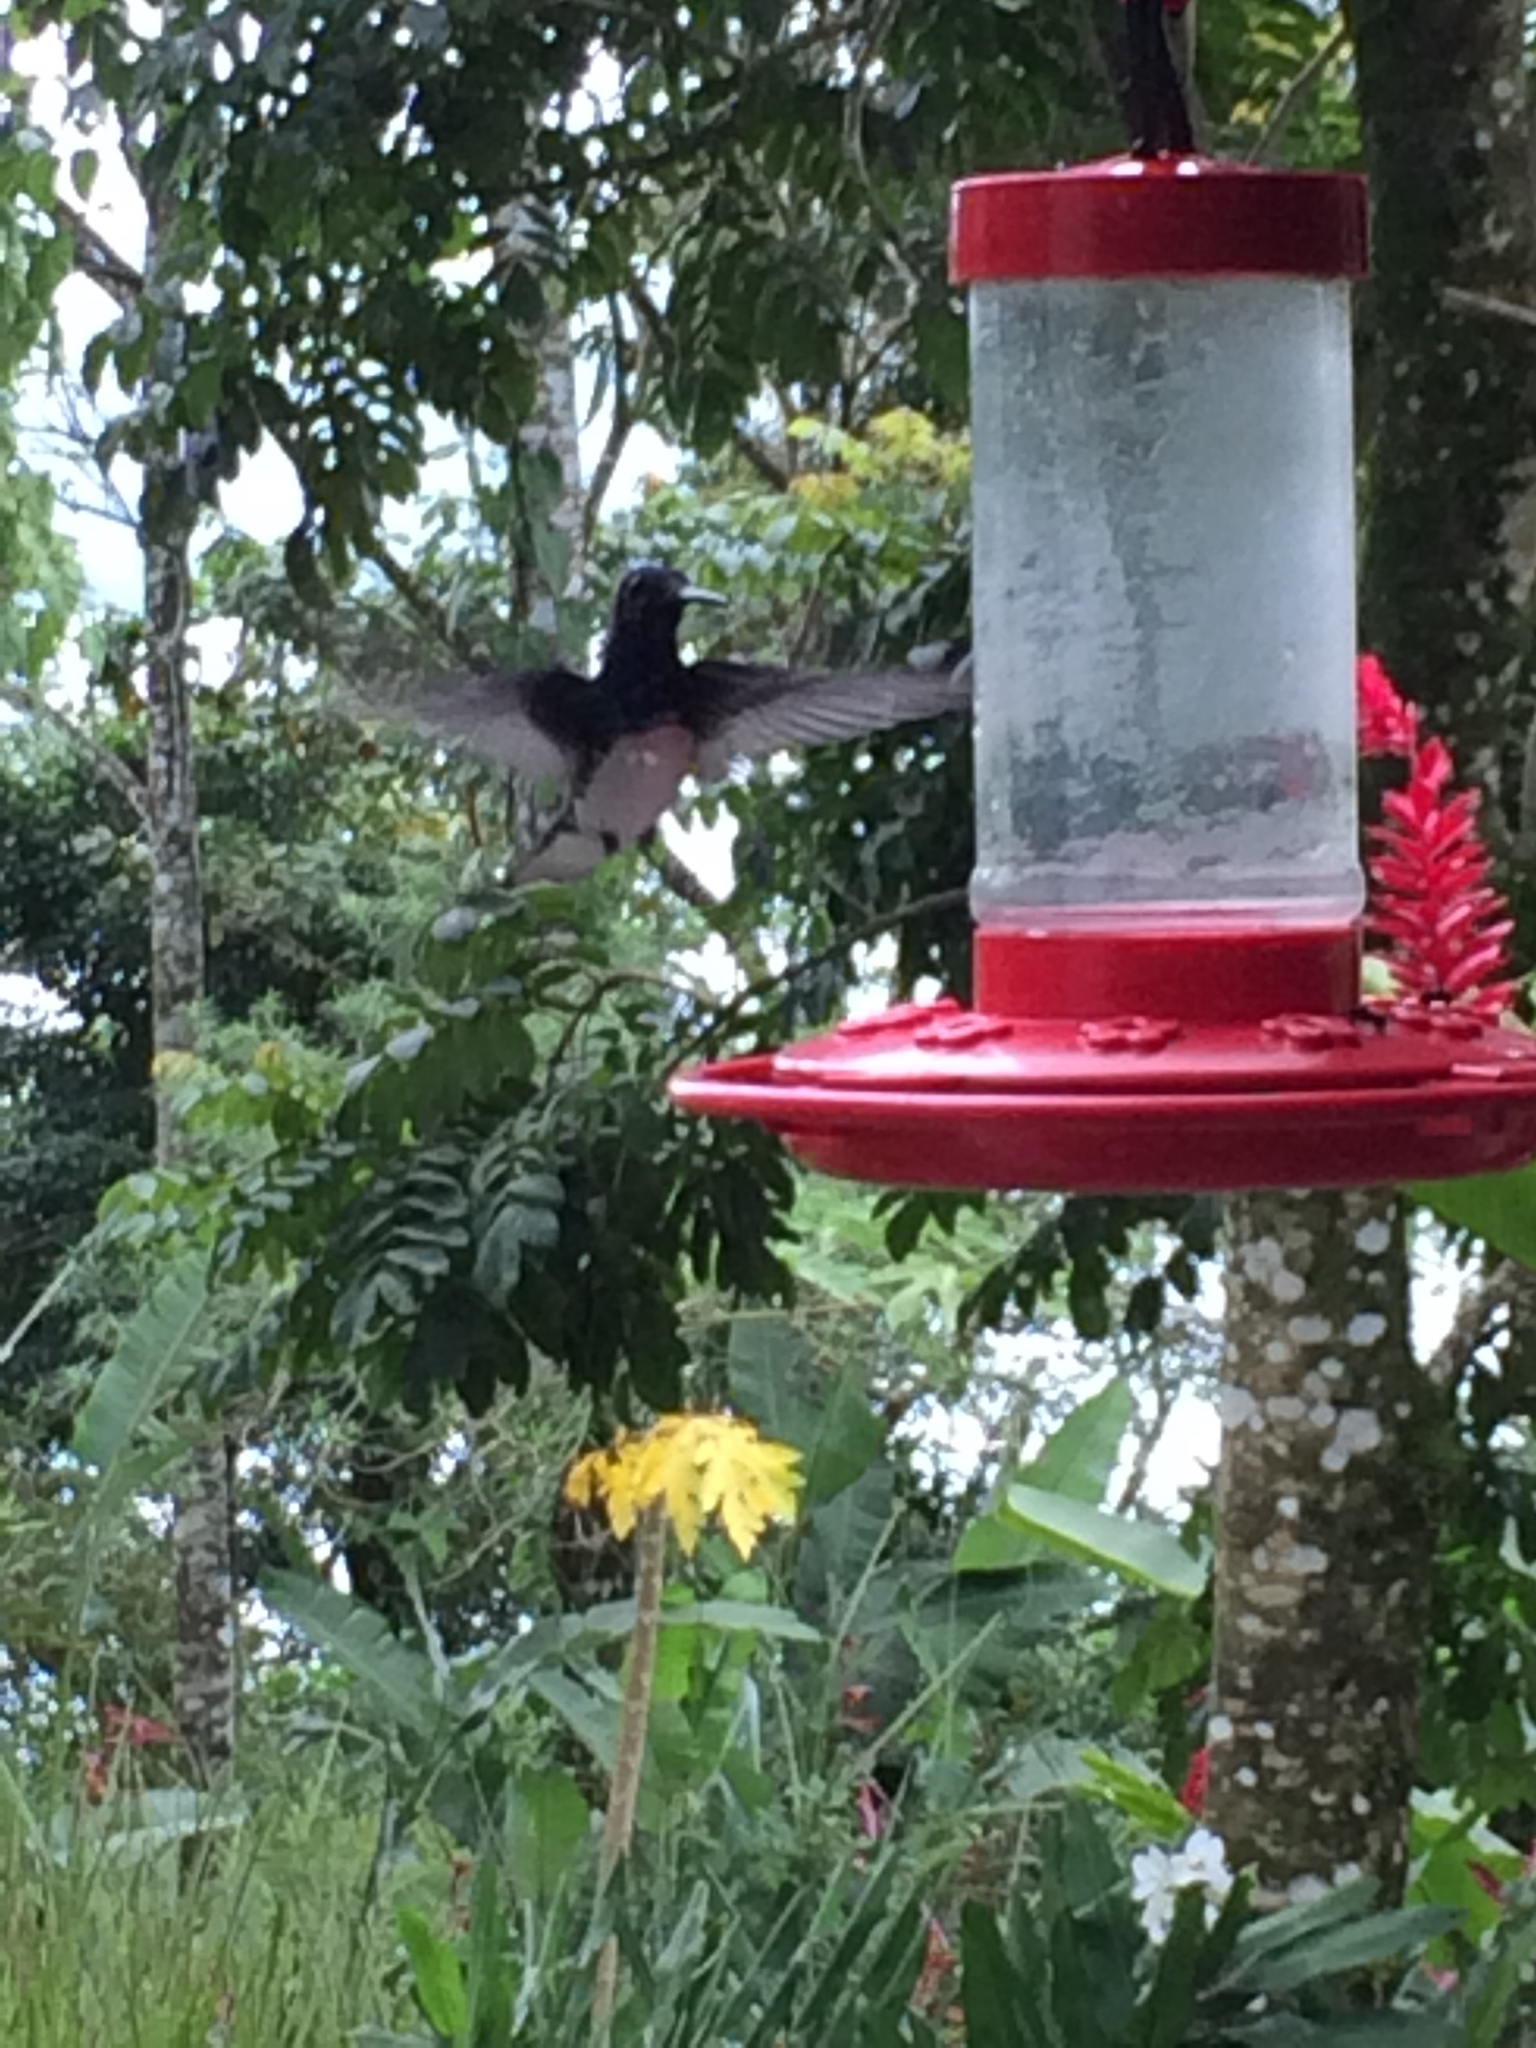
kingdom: Animalia
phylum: Chordata
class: Aves
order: Apodiformes
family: Trochilidae
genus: Florisuga
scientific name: Florisuga mellivora
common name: White-necked jacobin
